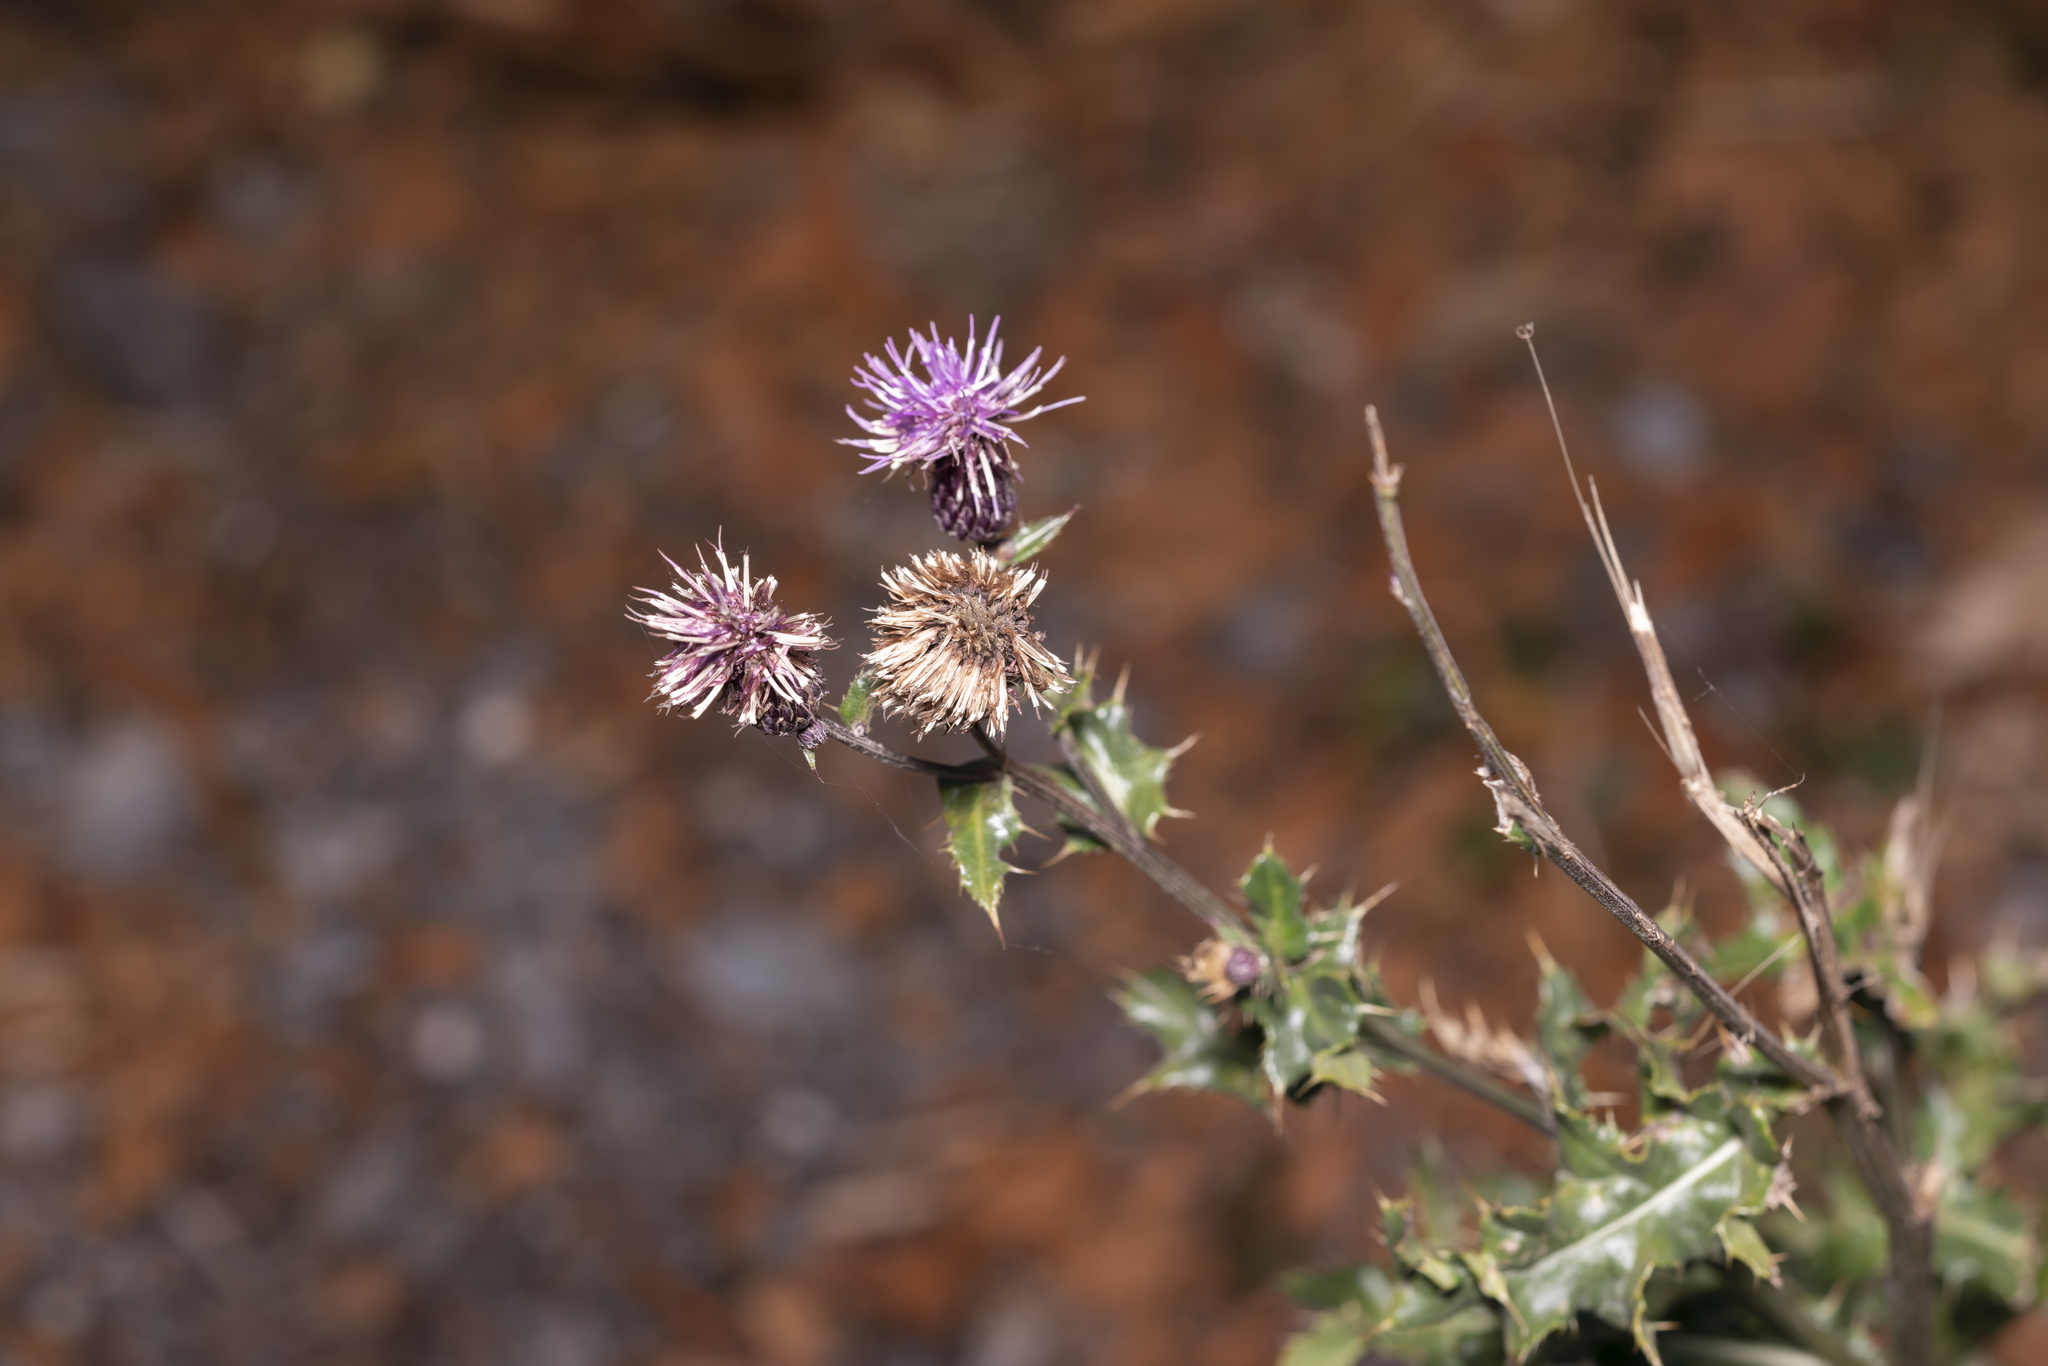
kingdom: Plantae
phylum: Tracheophyta
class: Magnoliopsida
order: Asterales
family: Asteraceae
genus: Cirsium
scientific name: Cirsium arvense
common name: Creeping thistle
